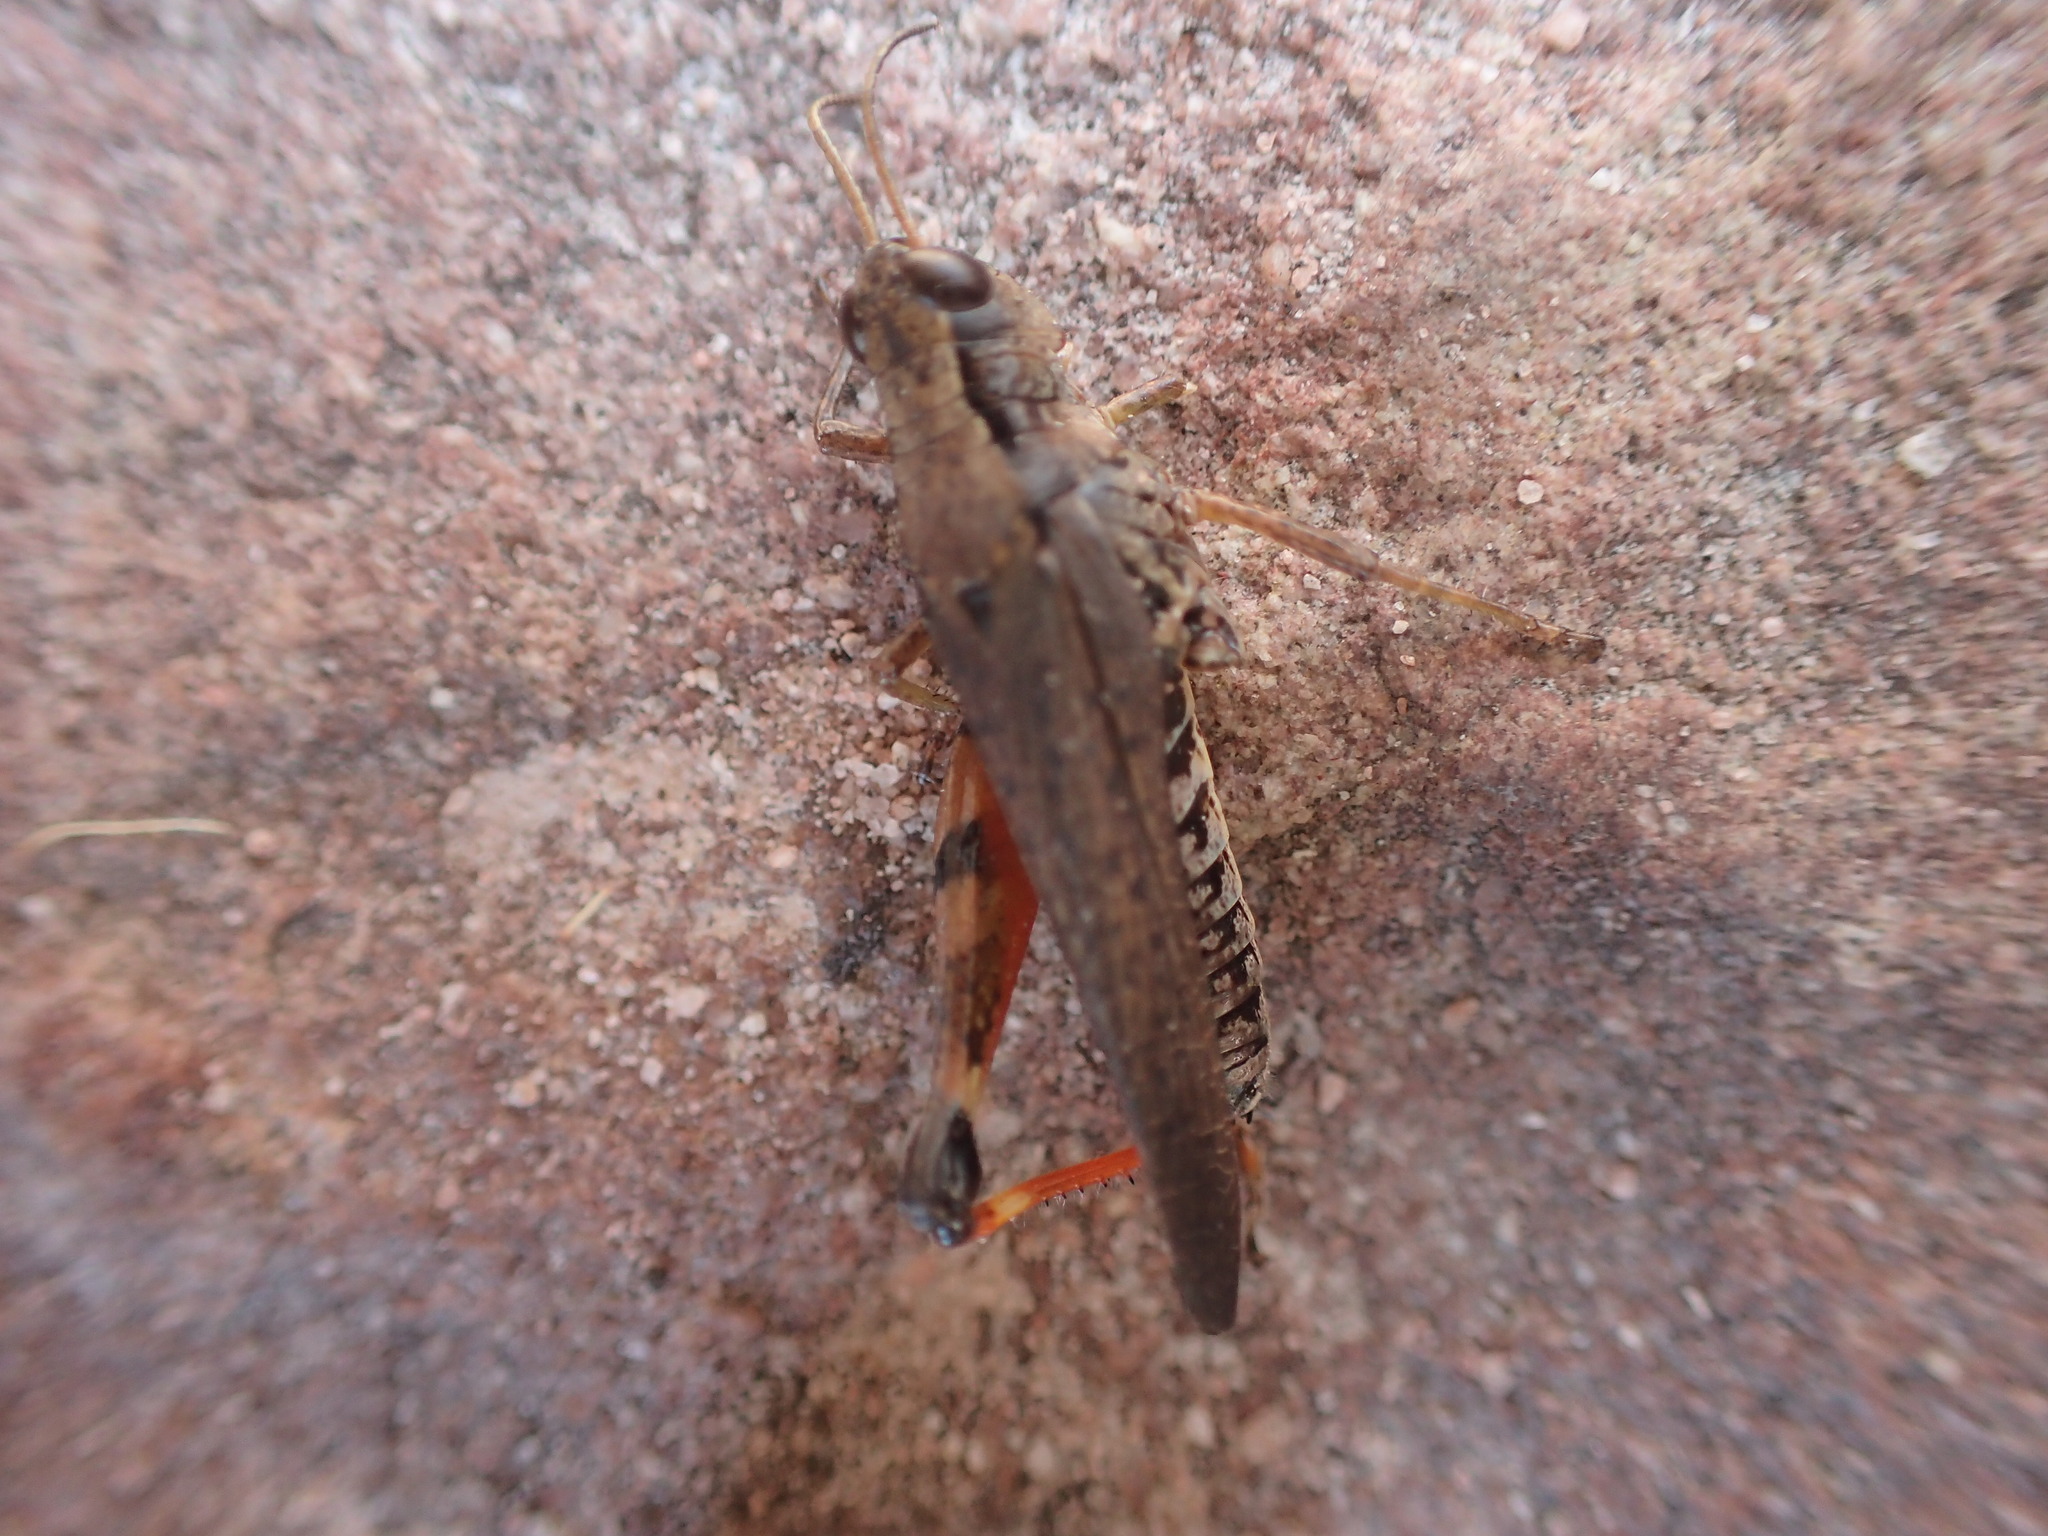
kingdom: Animalia
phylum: Arthropoda
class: Insecta
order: Orthoptera
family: Acrididae
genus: Phaulacridium
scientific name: Phaulacridium vittatum
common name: Wingless grasshopper
